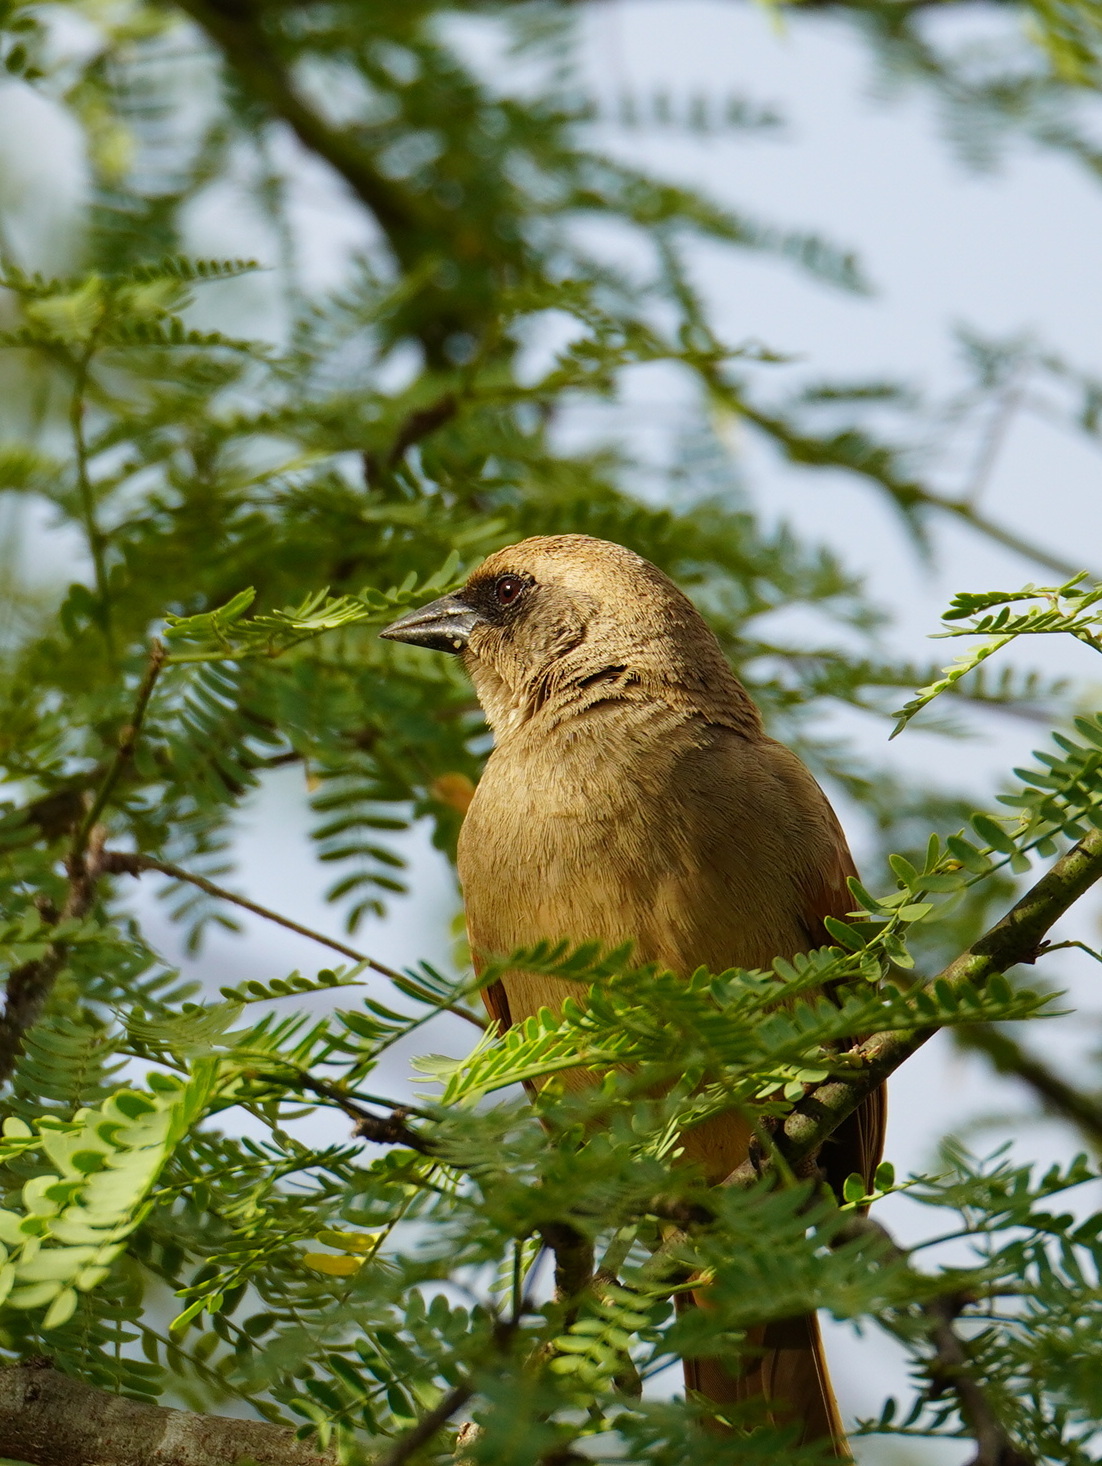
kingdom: Animalia
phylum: Chordata
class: Aves
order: Passeriformes
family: Icteridae
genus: Agelaioides
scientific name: Agelaioides badius
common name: Baywing
